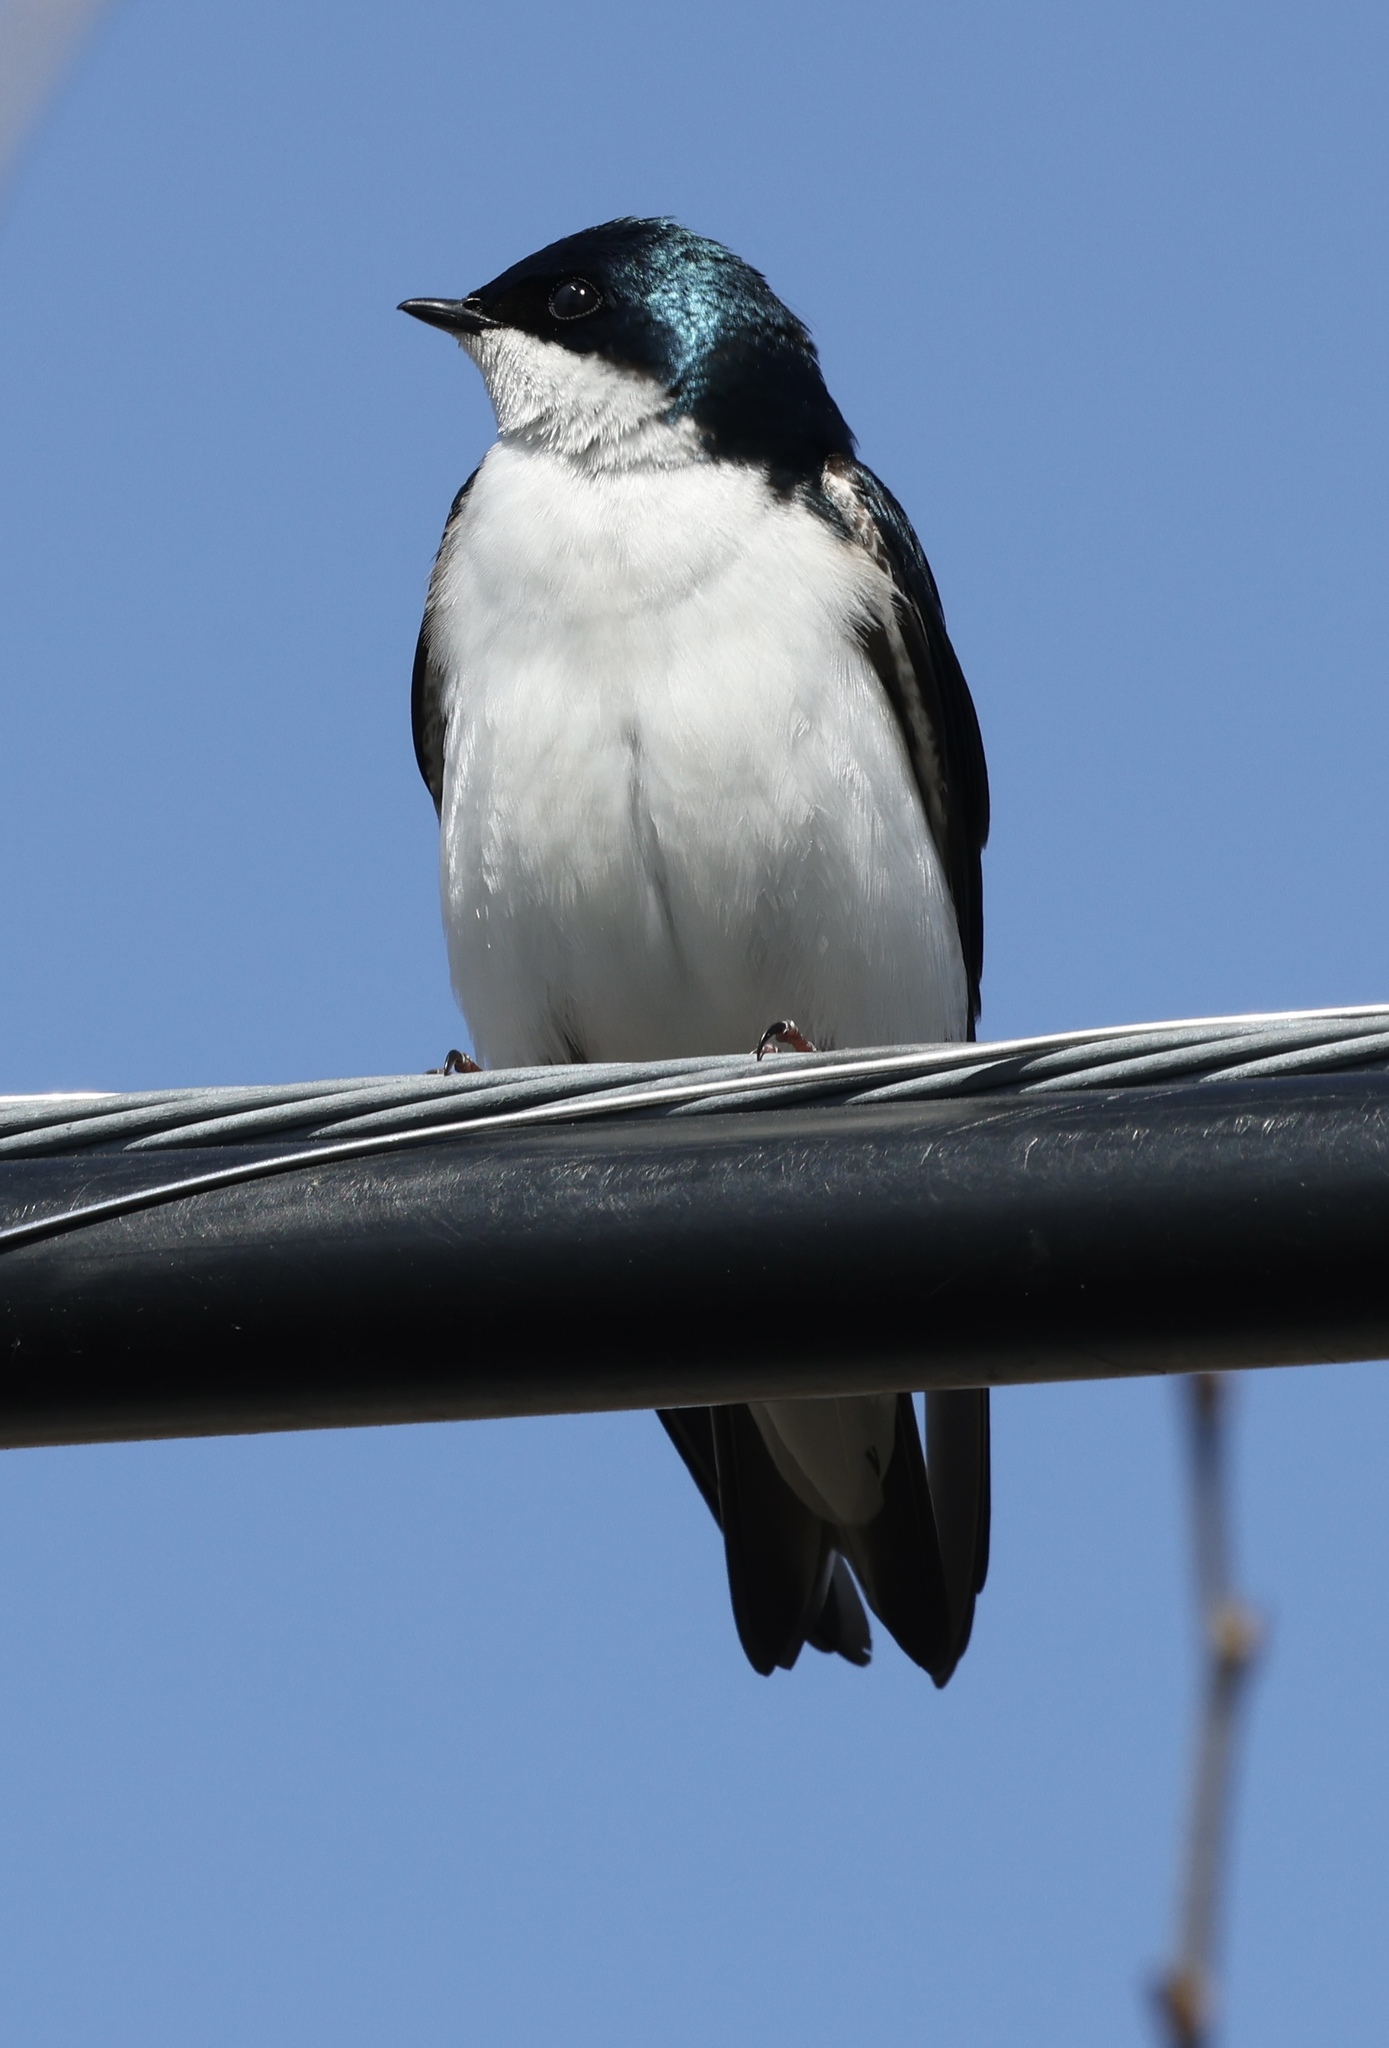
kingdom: Animalia
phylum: Chordata
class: Aves
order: Passeriformes
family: Hirundinidae
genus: Tachycineta
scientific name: Tachycineta bicolor
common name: Tree swallow
